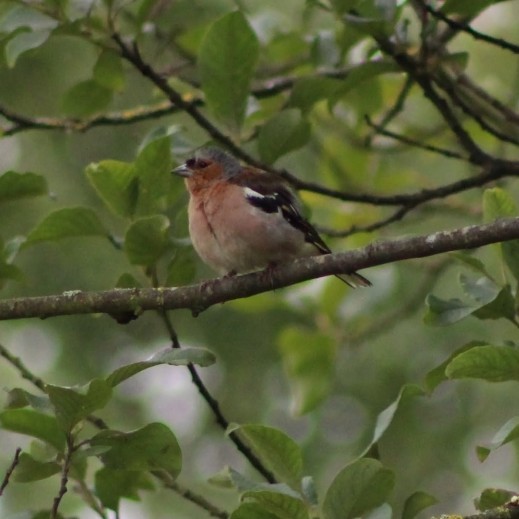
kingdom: Animalia
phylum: Chordata
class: Aves
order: Passeriformes
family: Fringillidae
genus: Fringilla
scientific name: Fringilla coelebs
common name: Common chaffinch
